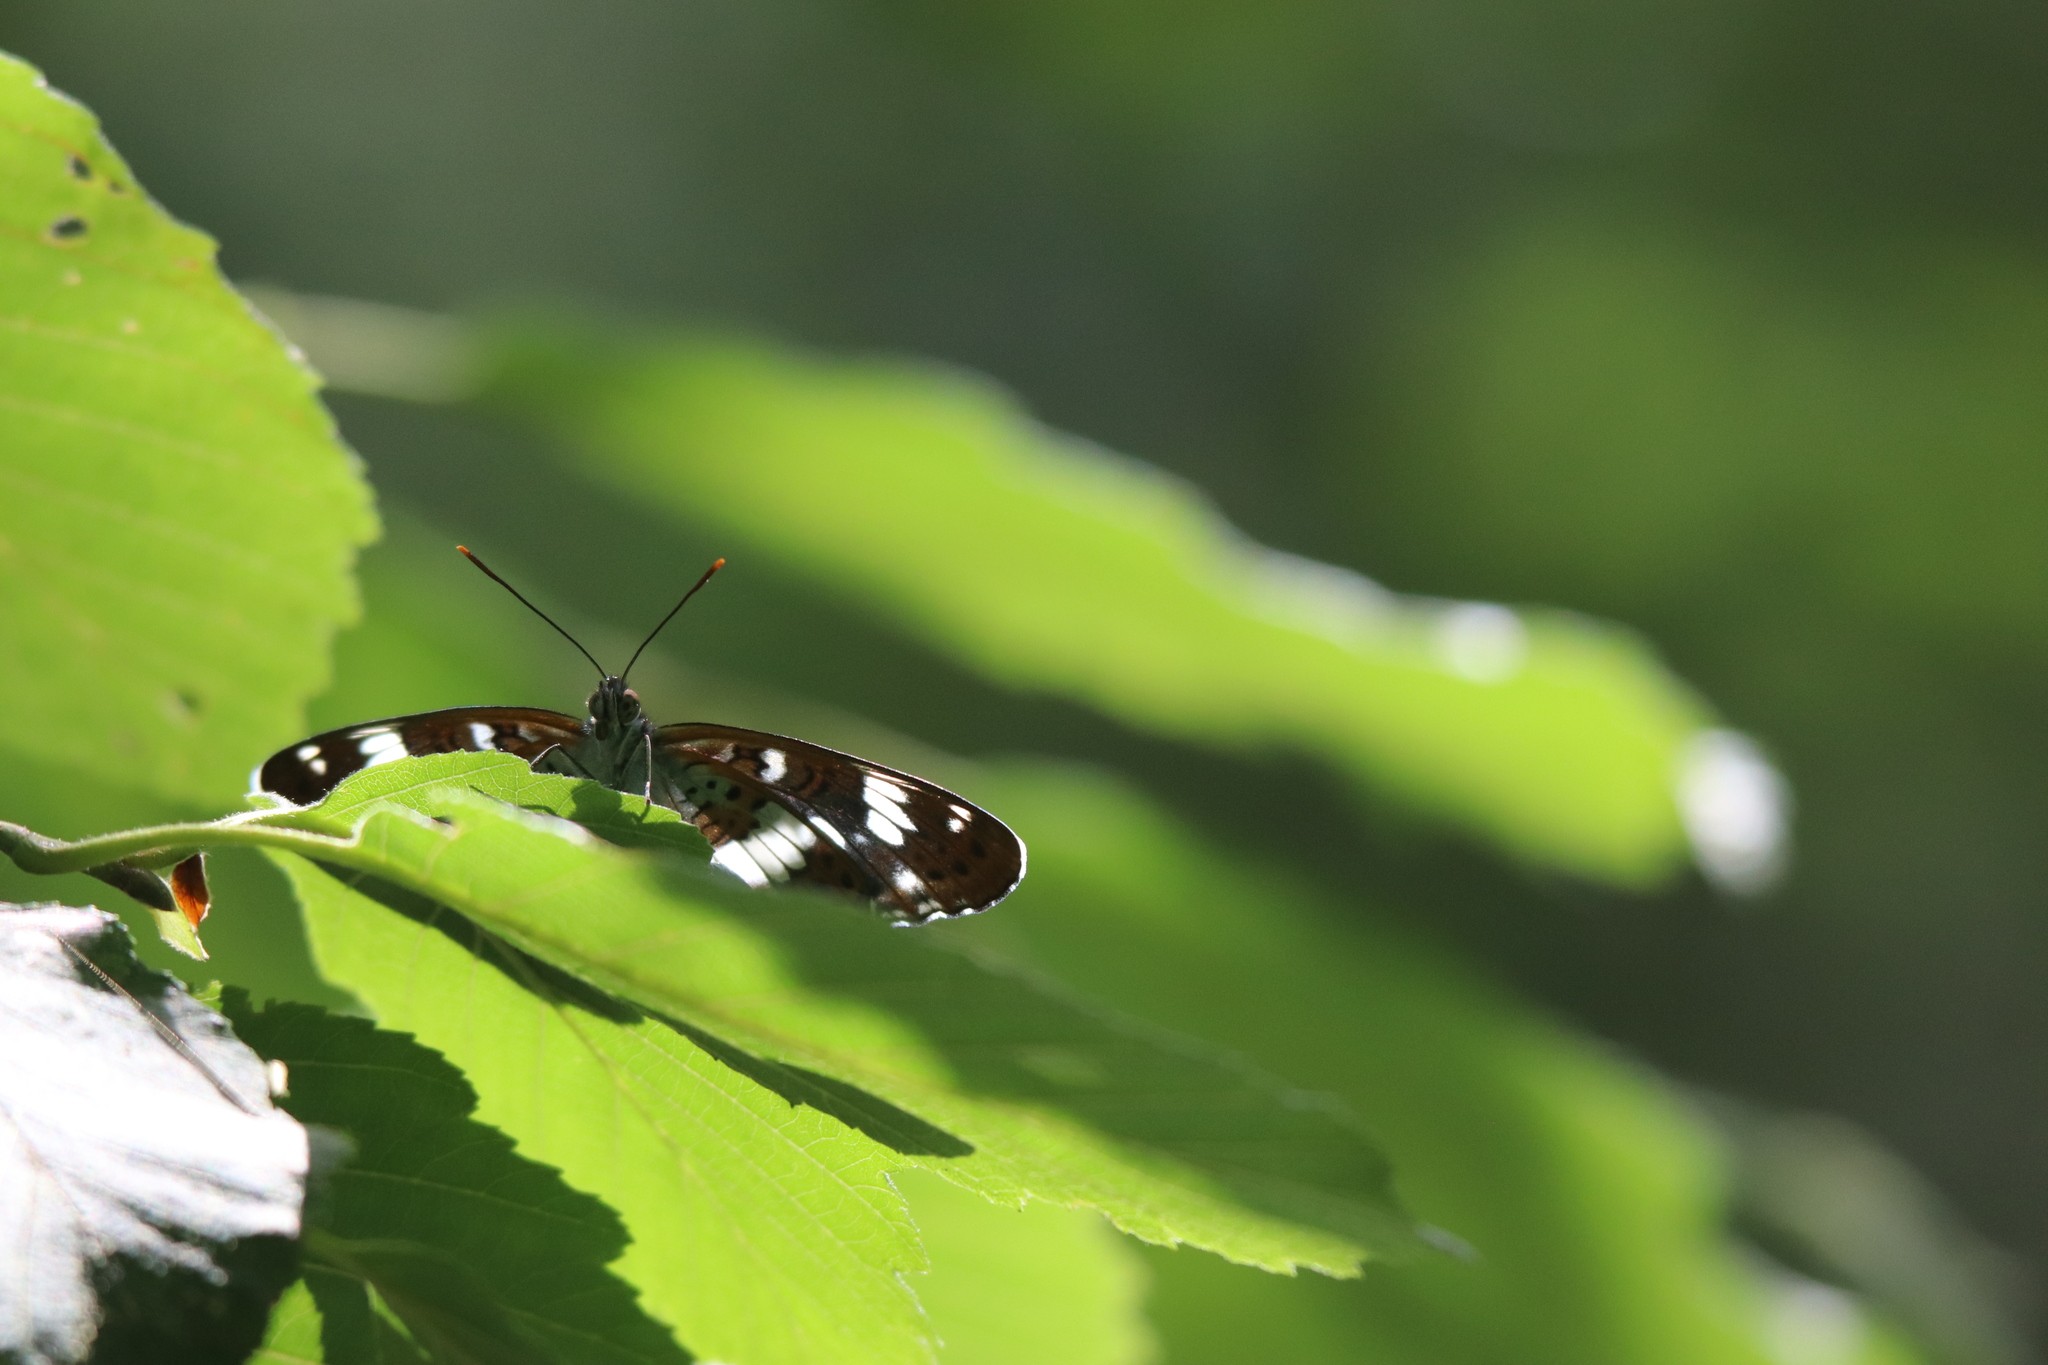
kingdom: Animalia
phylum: Arthropoda
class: Insecta
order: Lepidoptera
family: Nymphalidae
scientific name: Nymphalidae
